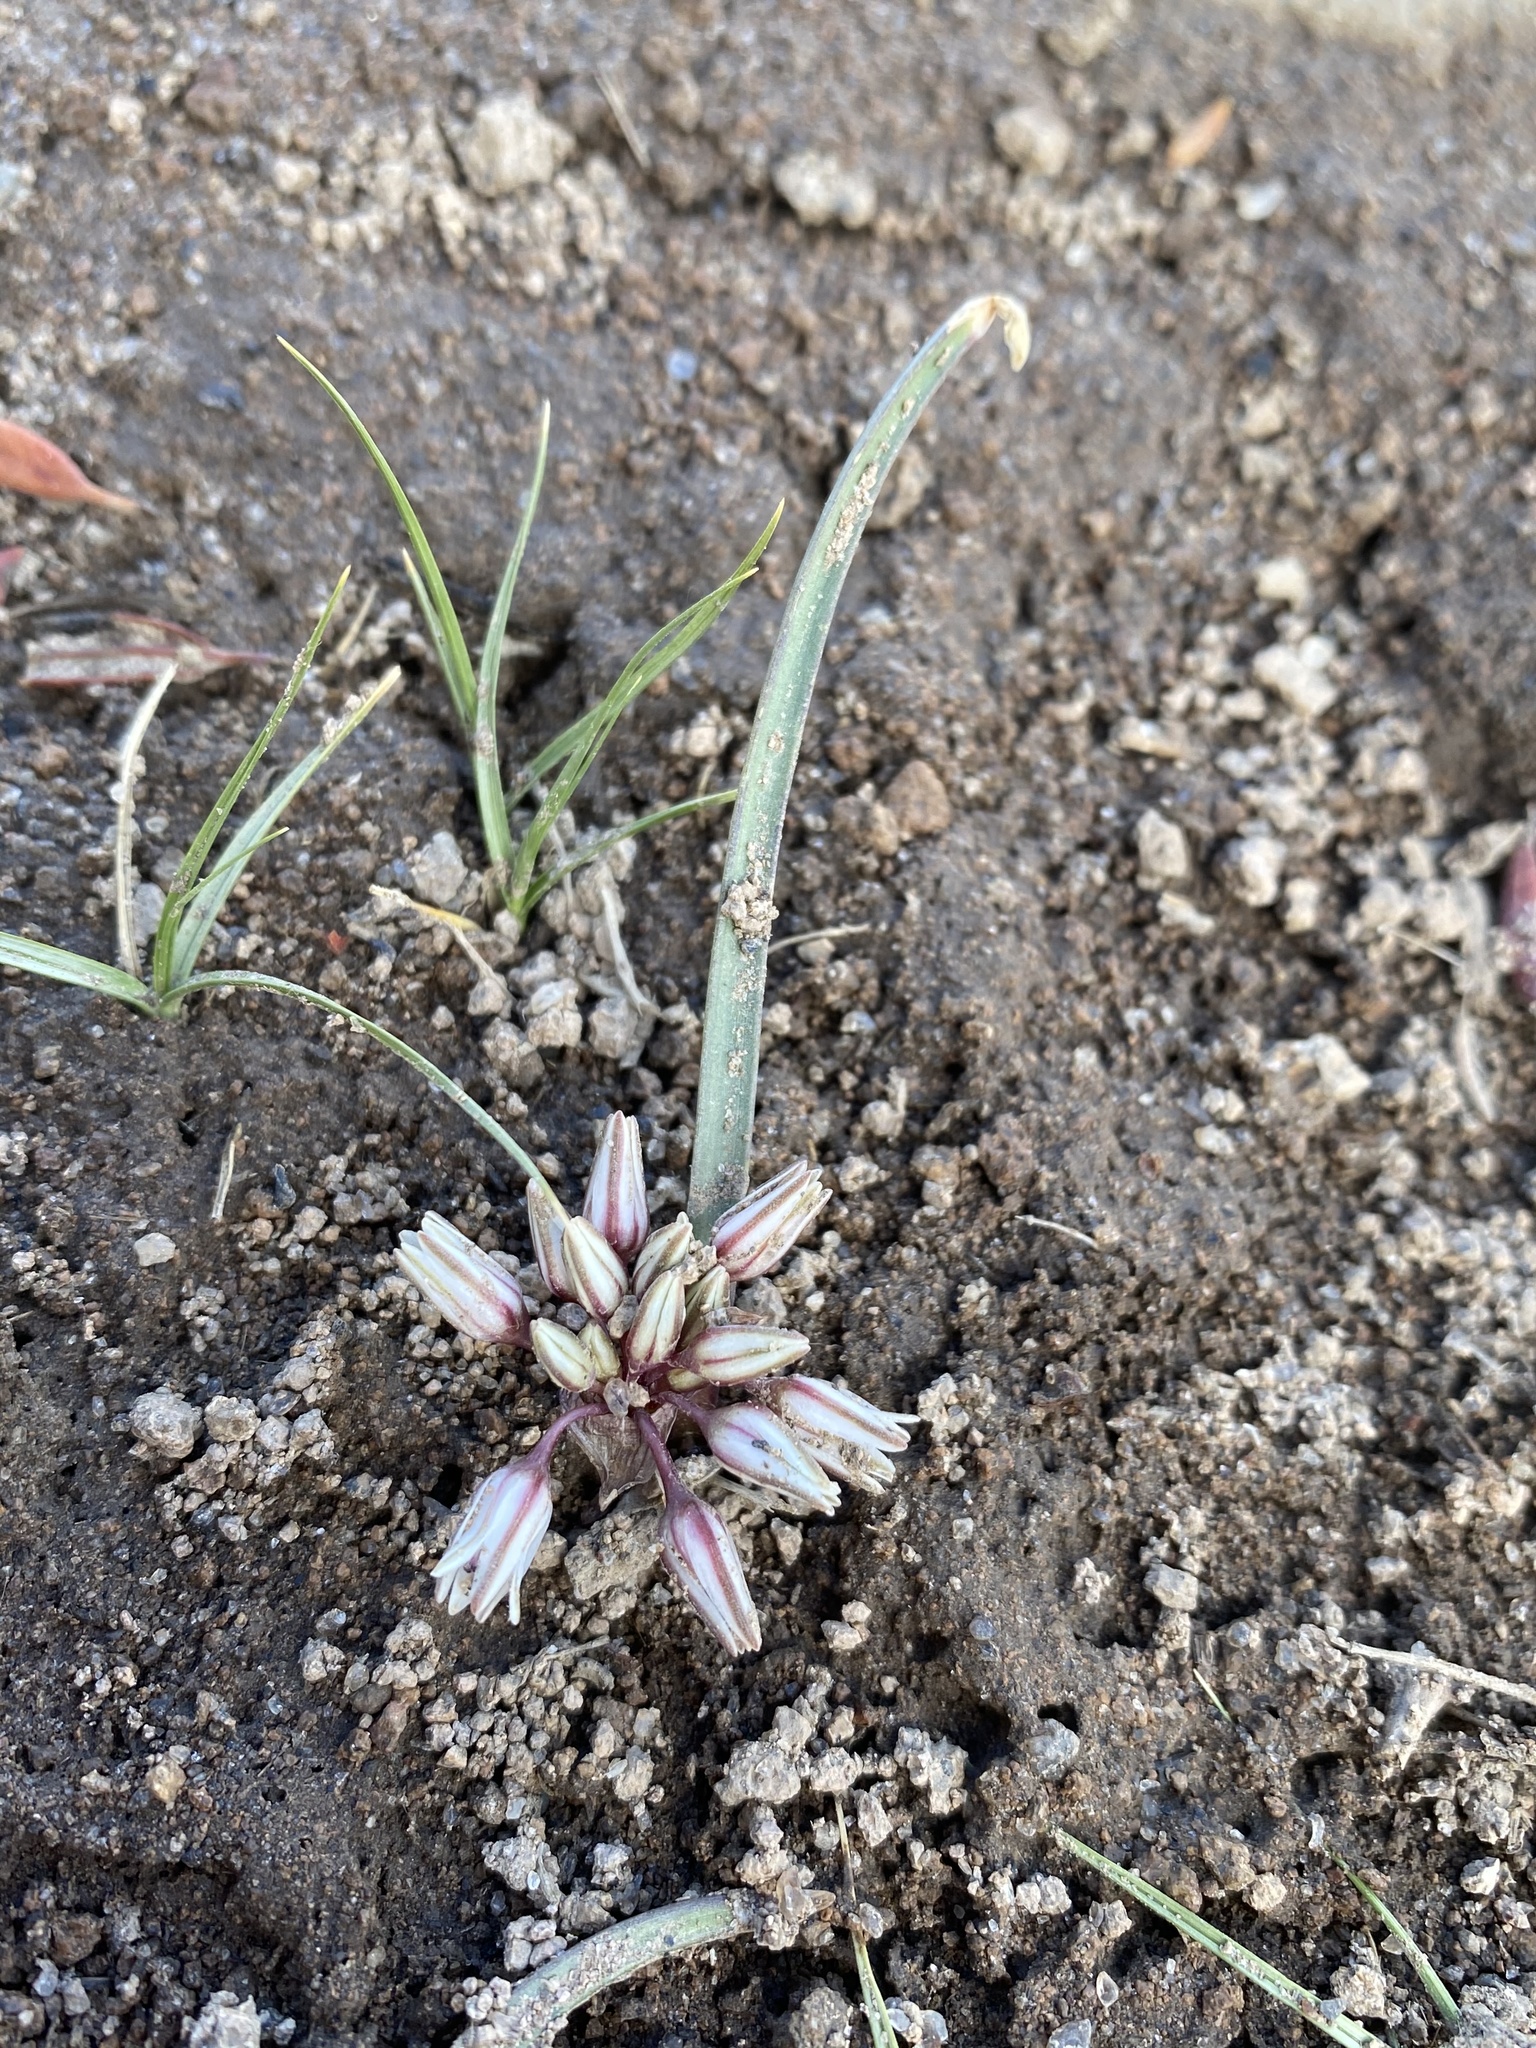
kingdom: Plantae
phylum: Tracheophyta
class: Liliopsida
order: Asparagales
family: Amaryllidaceae
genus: Allium
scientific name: Allium parvum
